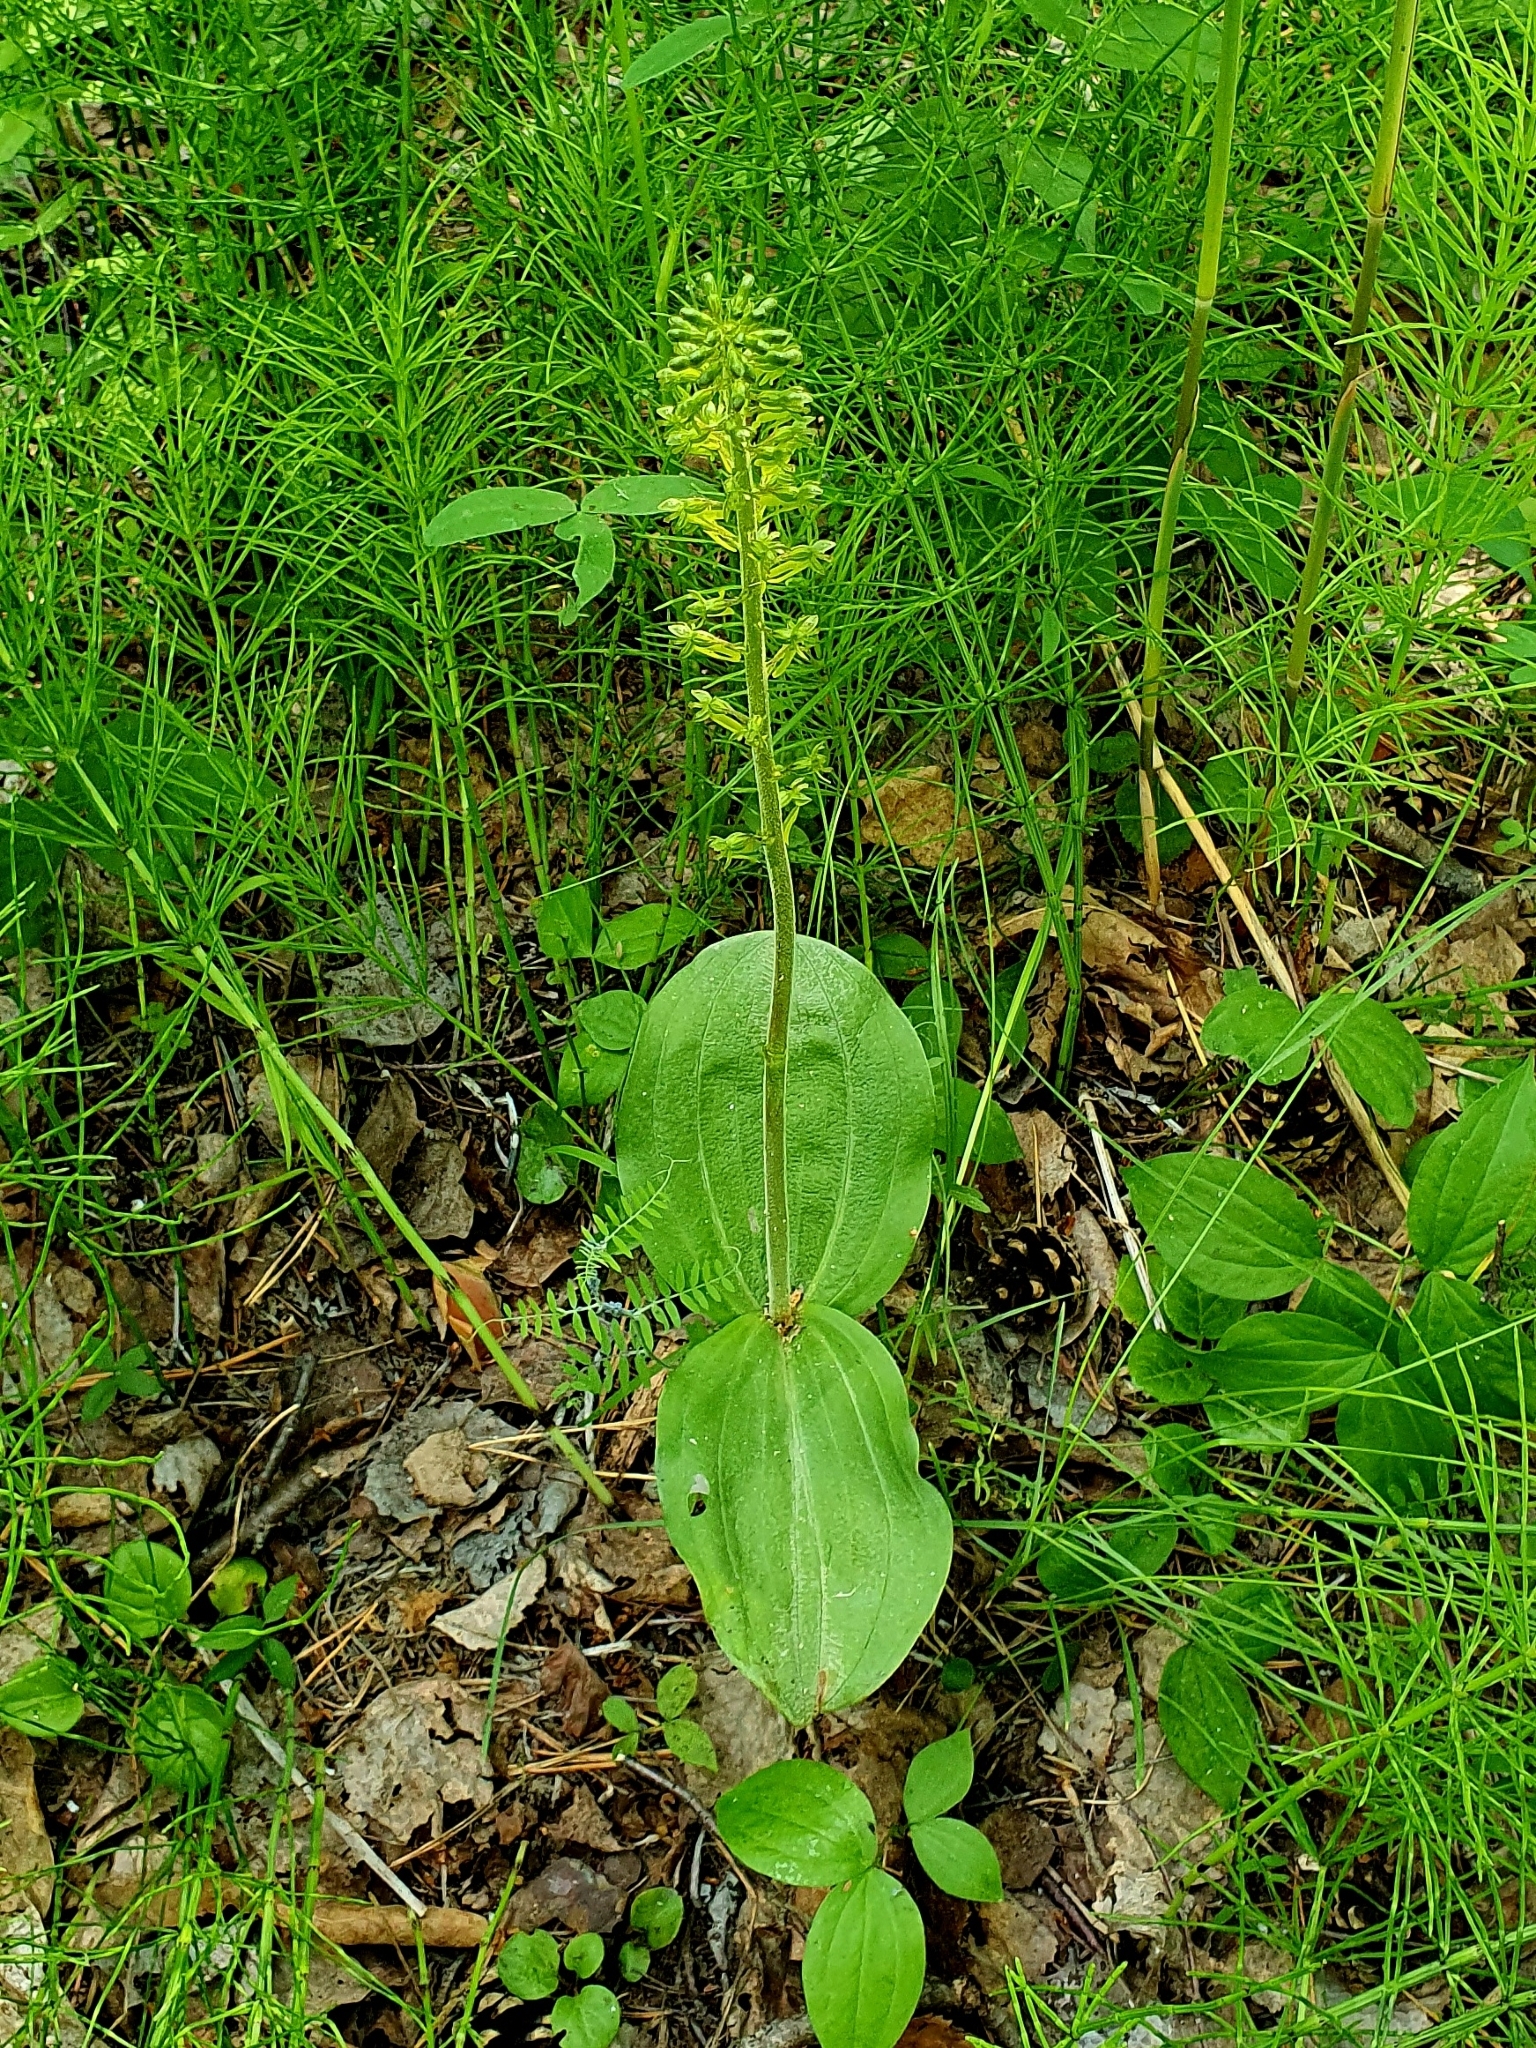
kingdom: Plantae
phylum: Tracheophyta
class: Liliopsida
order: Asparagales
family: Orchidaceae
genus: Neottia
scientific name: Neottia ovata
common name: Common twayblade
